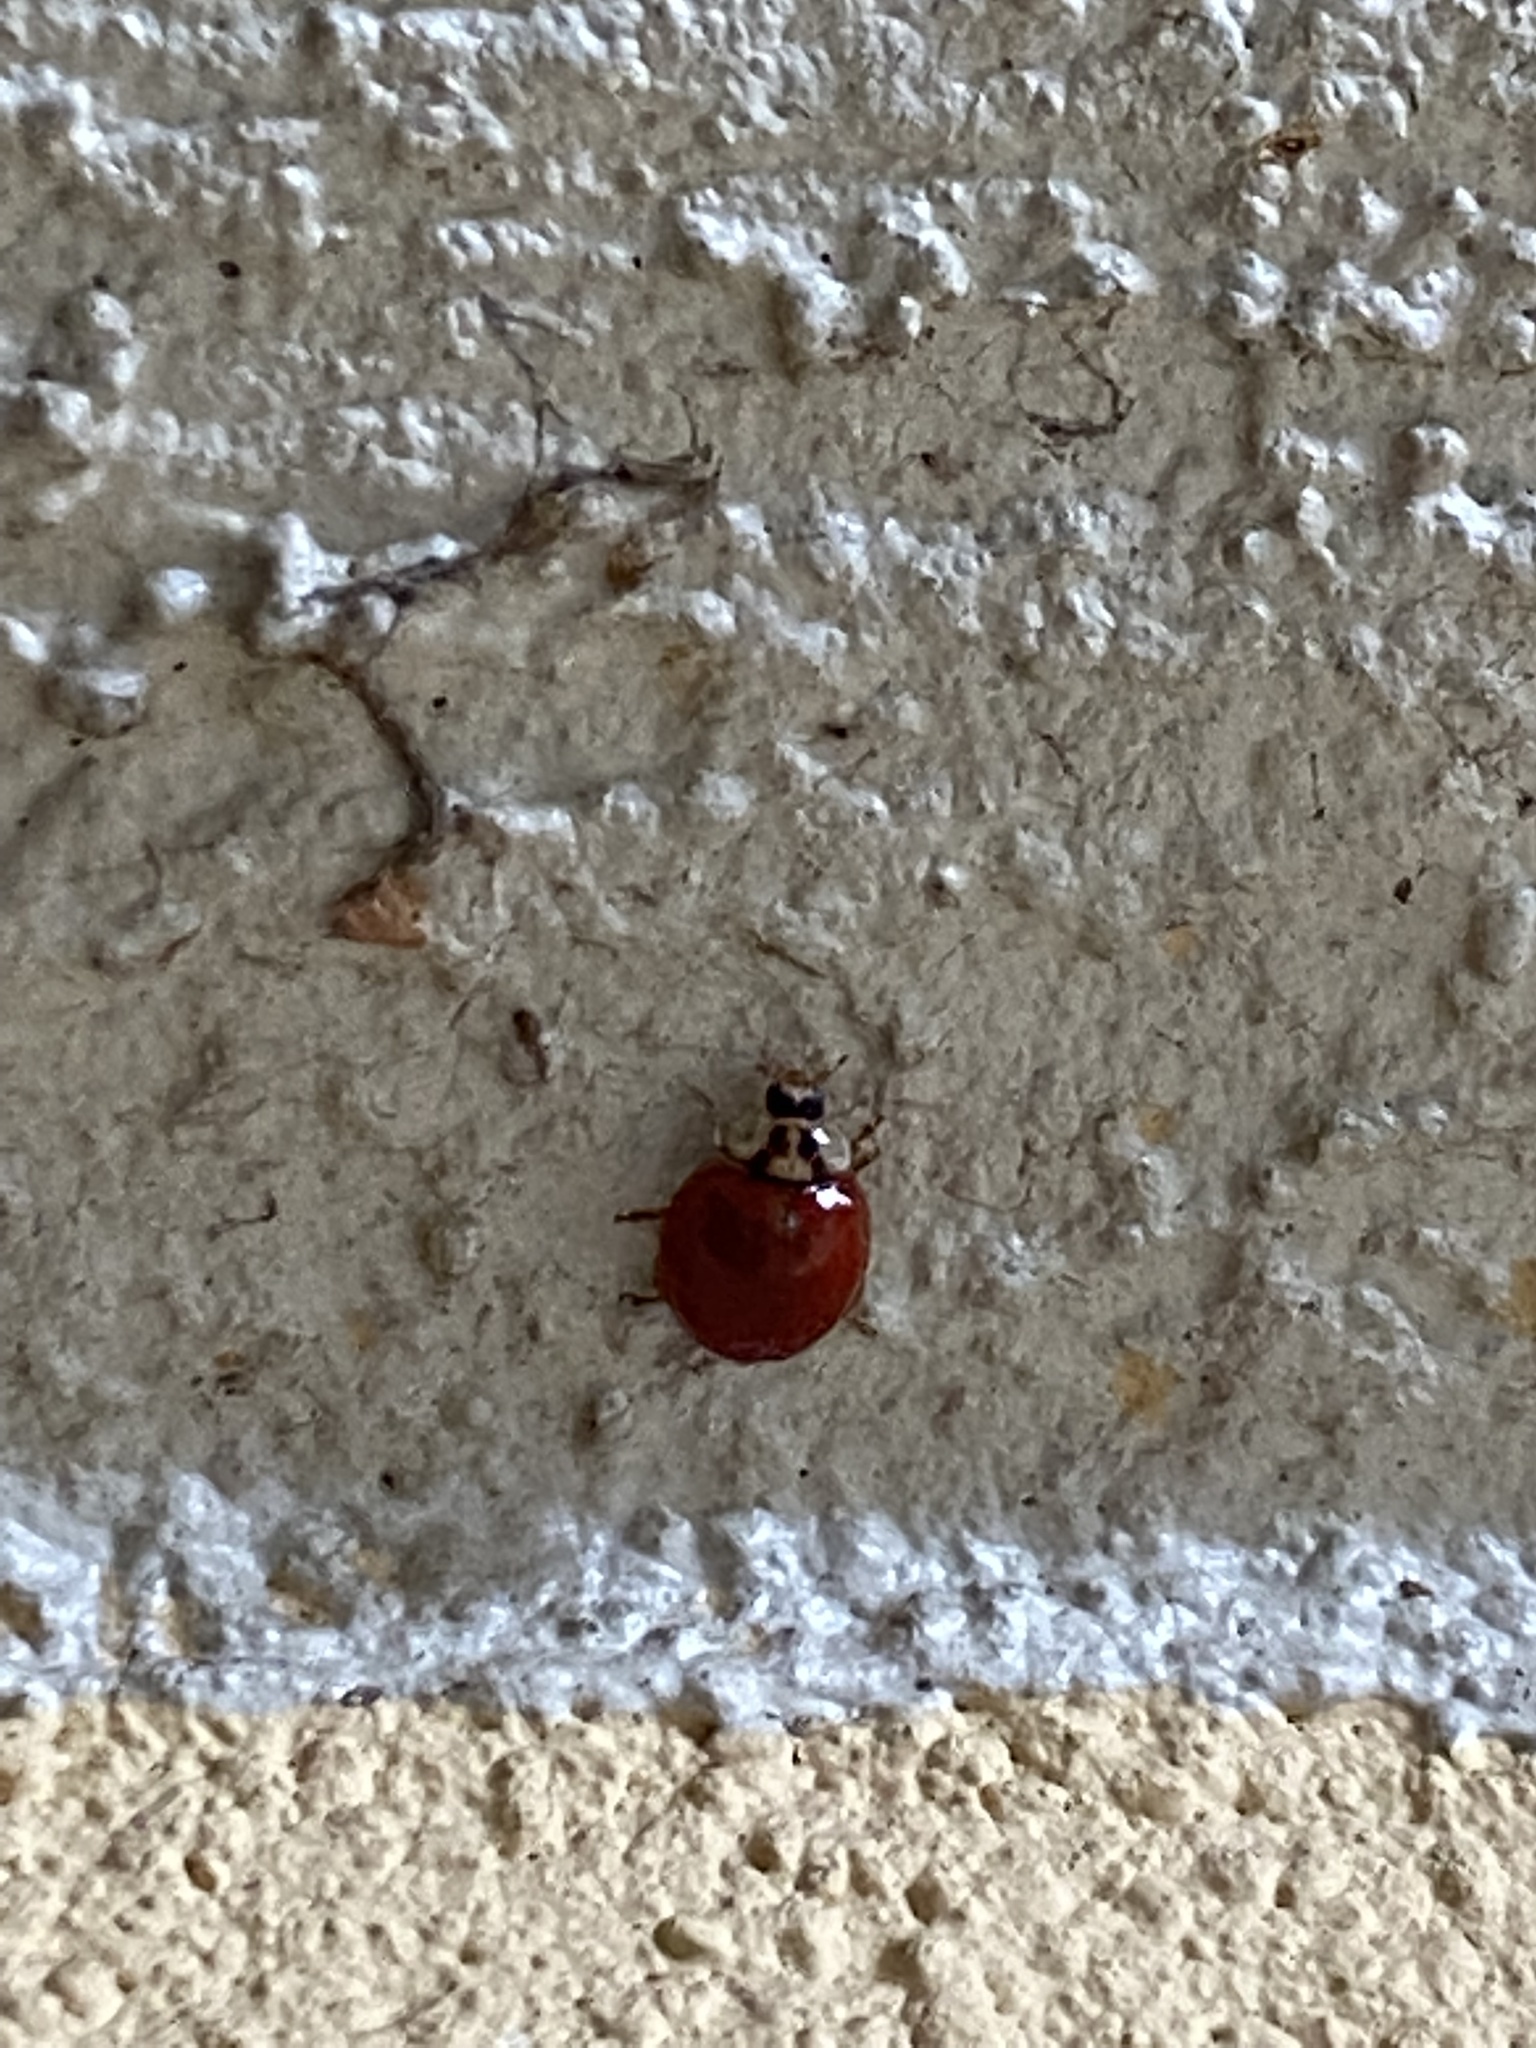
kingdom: Animalia
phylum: Arthropoda
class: Insecta
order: Coleoptera
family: Coccinellidae
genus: Harmonia
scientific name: Harmonia axyridis
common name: Harlequin ladybird
